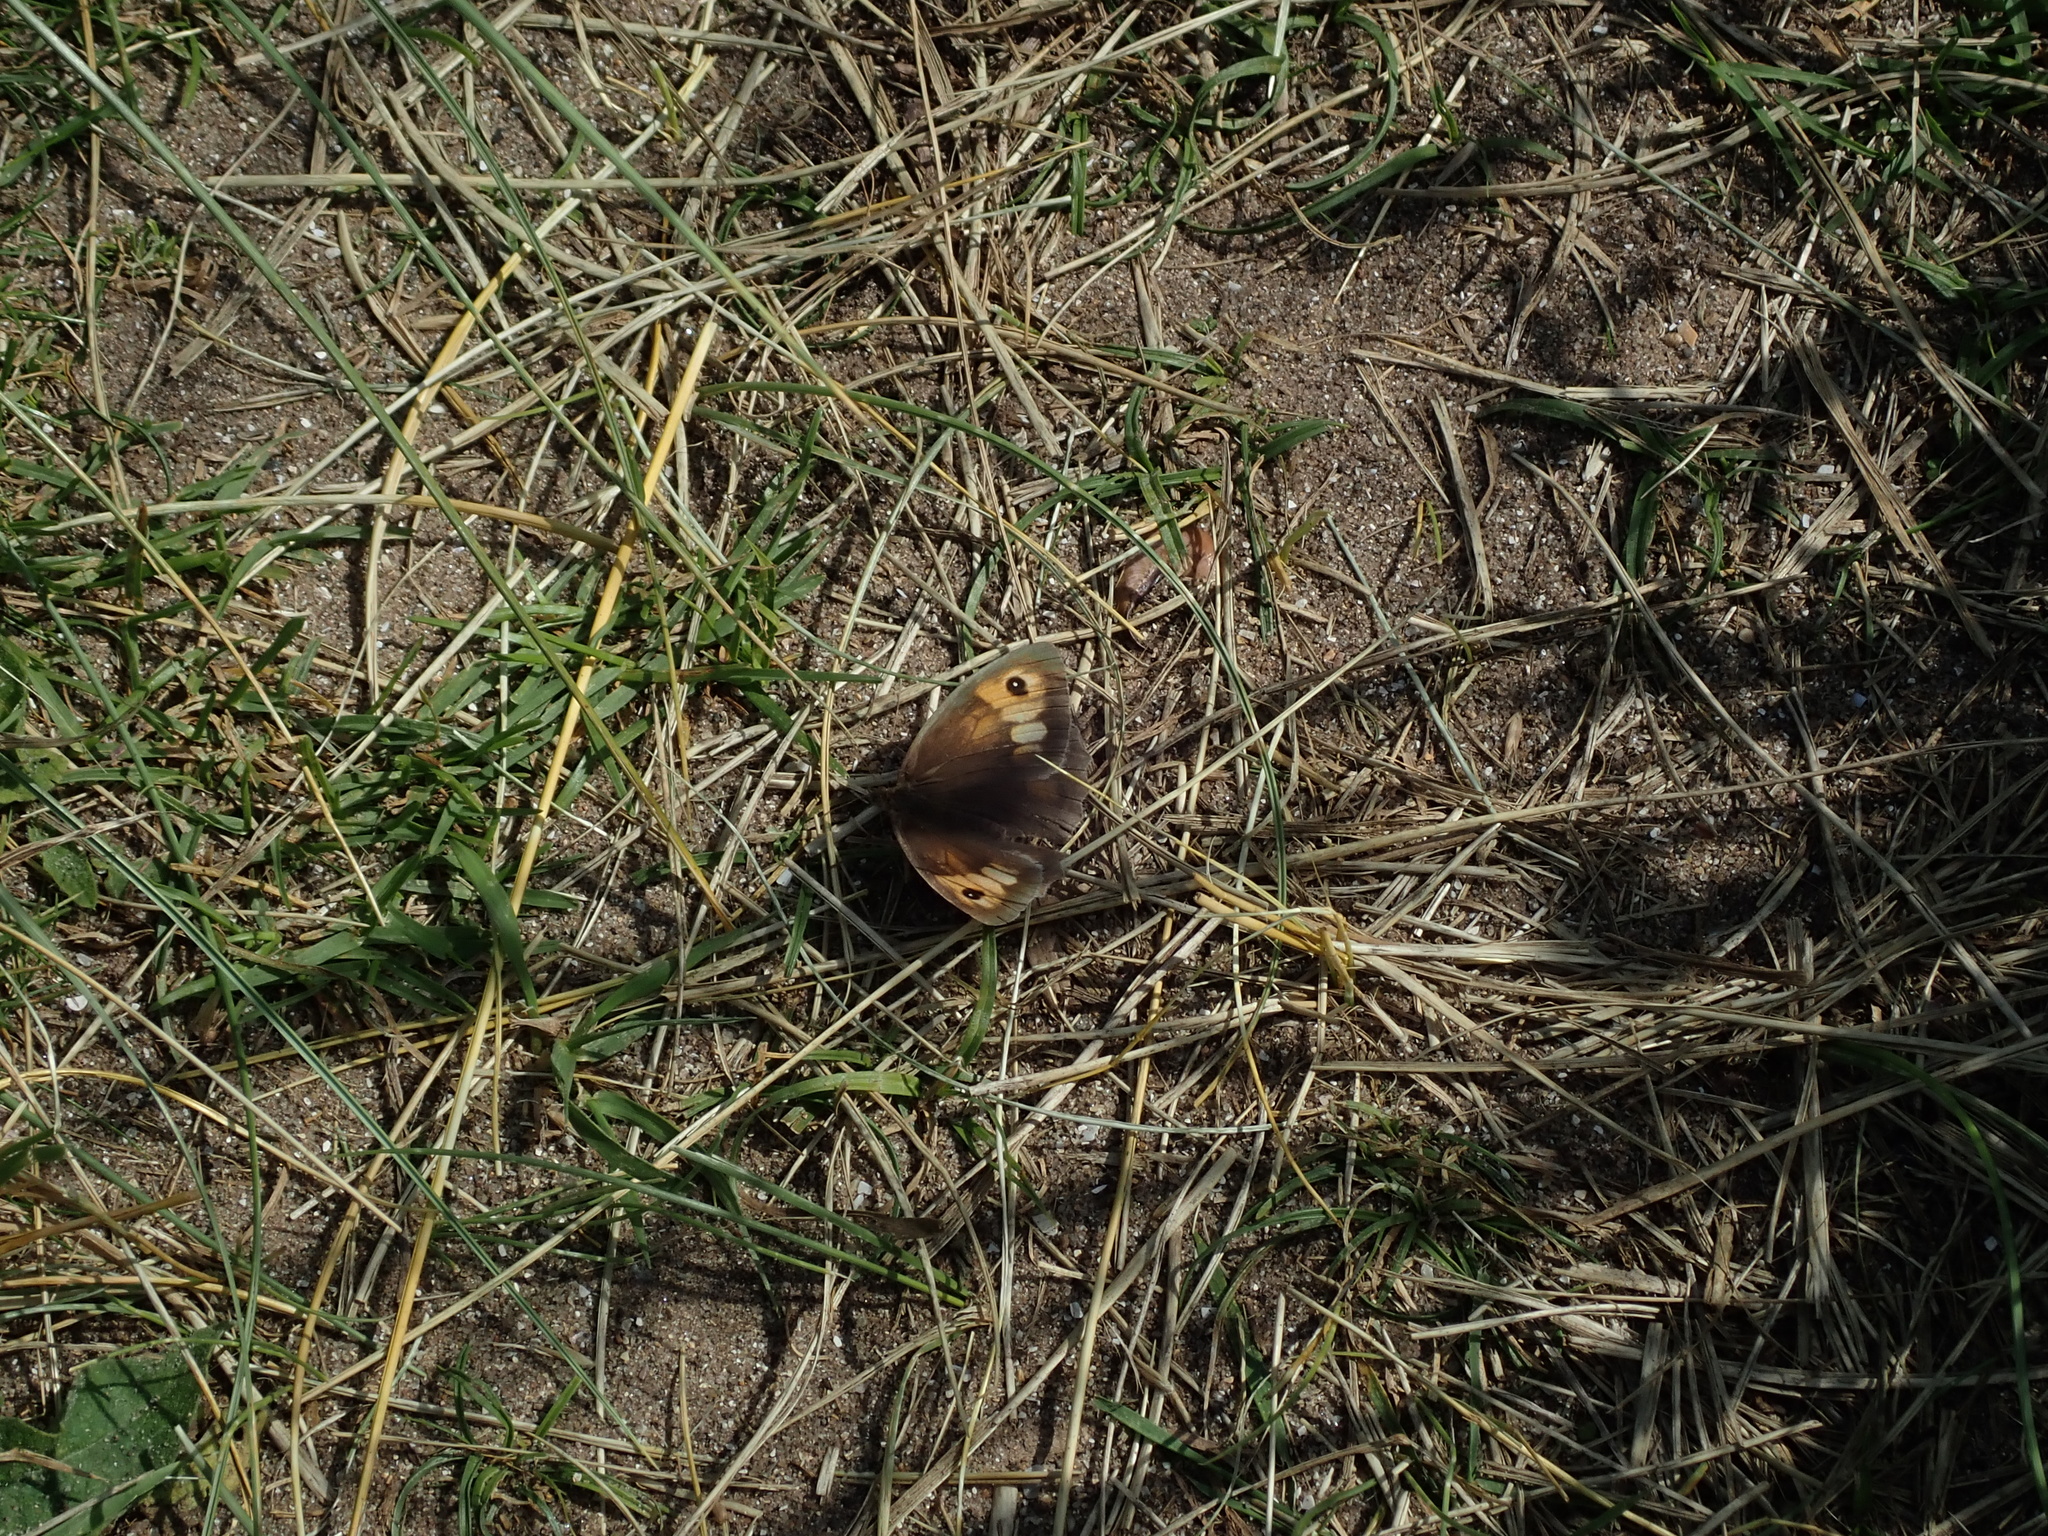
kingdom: Animalia
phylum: Arthropoda
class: Insecta
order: Lepidoptera
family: Nymphalidae
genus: Maniola
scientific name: Maniola jurtina
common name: Meadow brown
